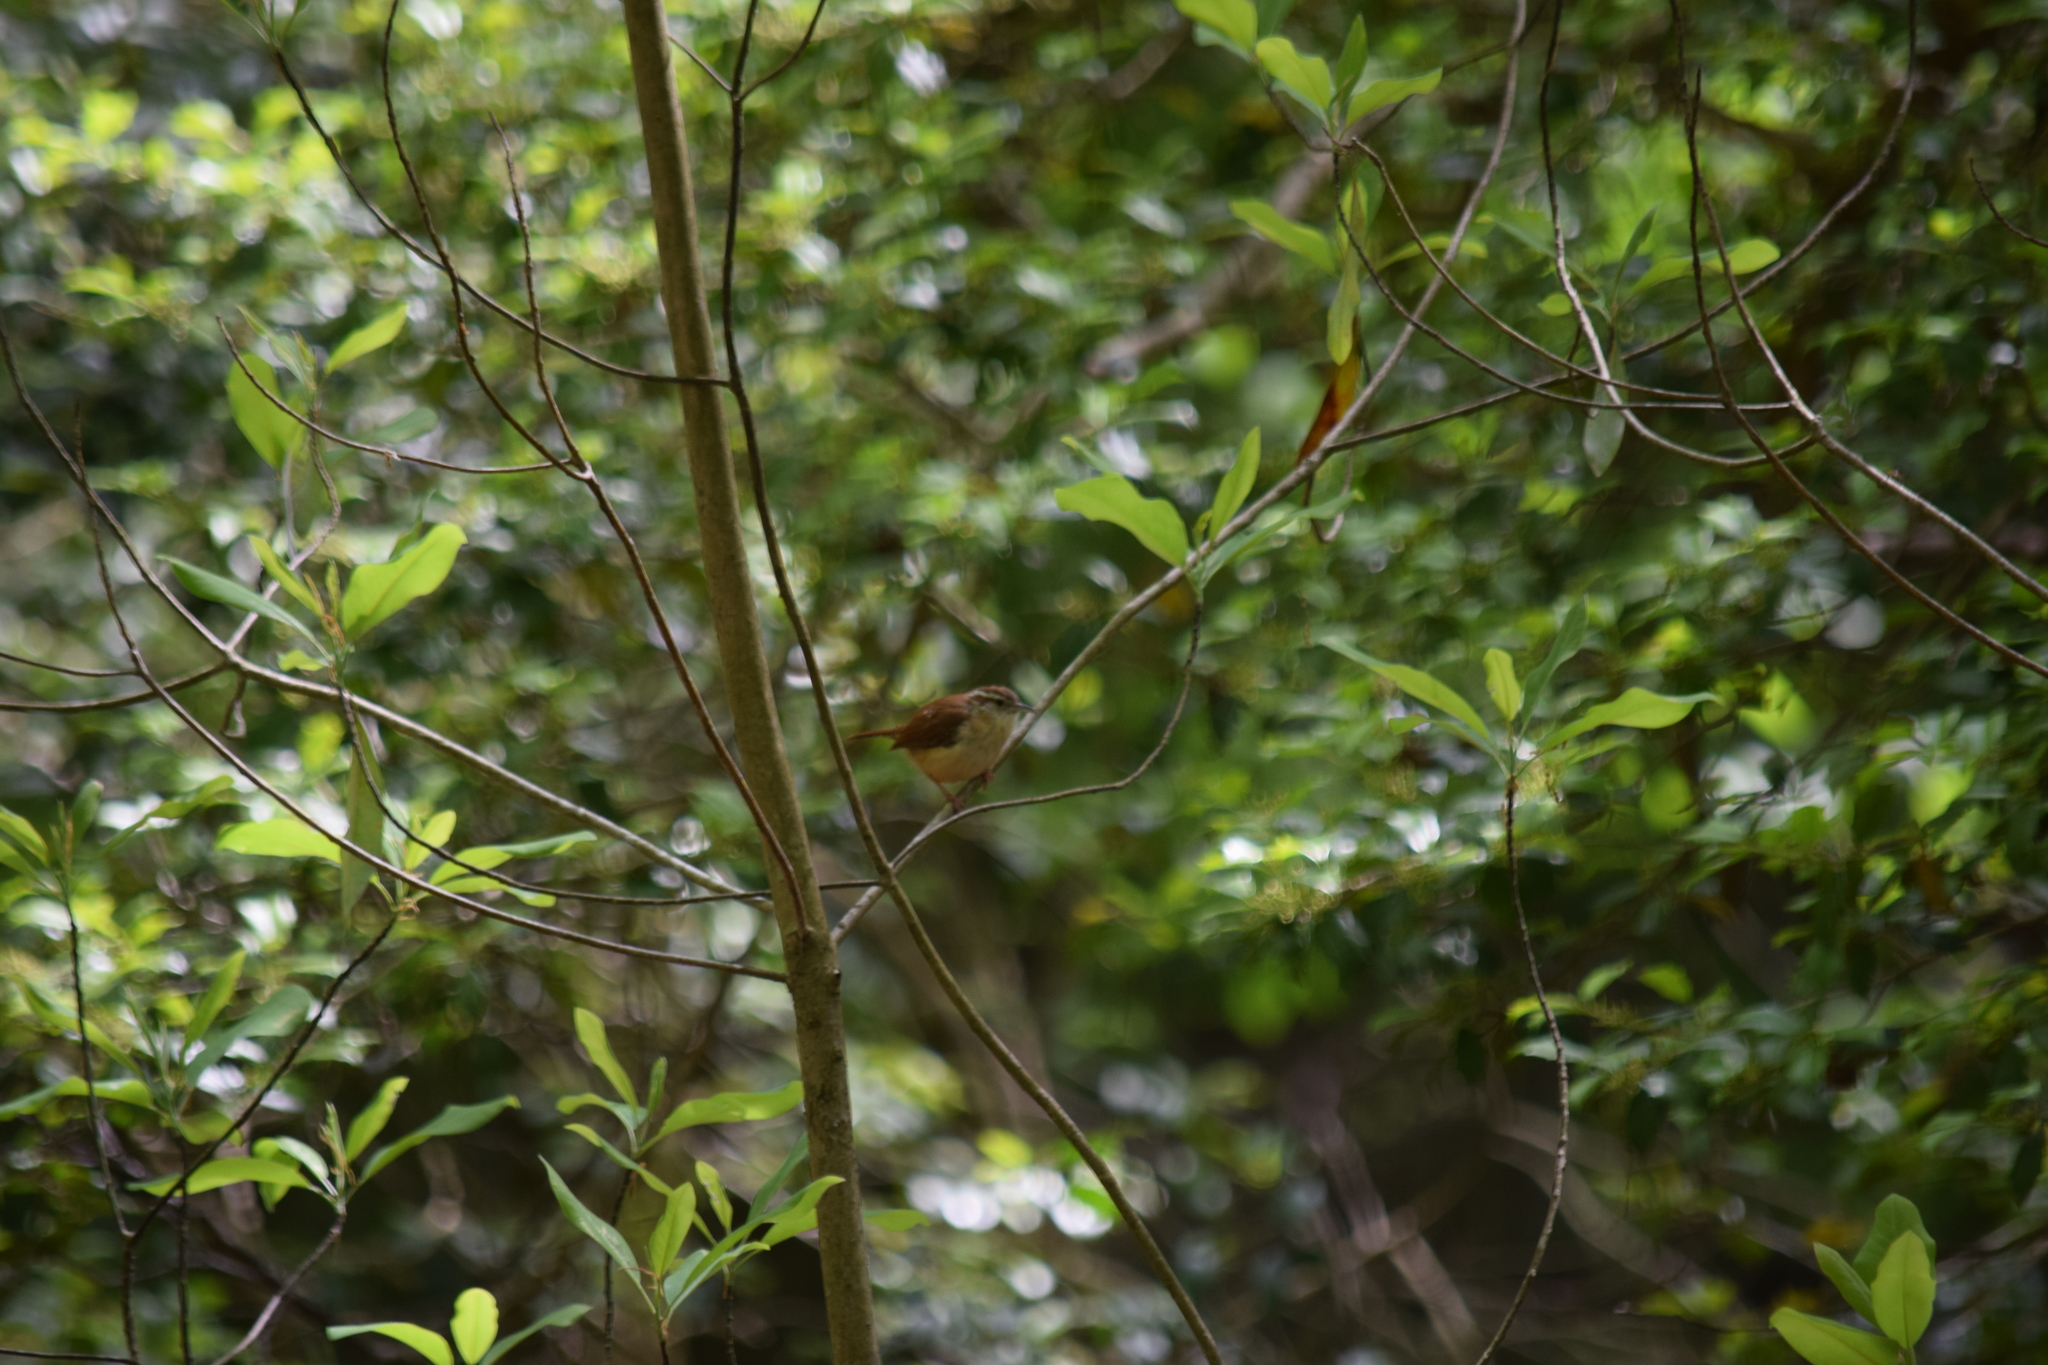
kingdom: Animalia
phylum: Chordata
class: Aves
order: Passeriformes
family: Troglodytidae
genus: Thryothorus
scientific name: Thryothorus ludovicianus
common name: Carolina wren
